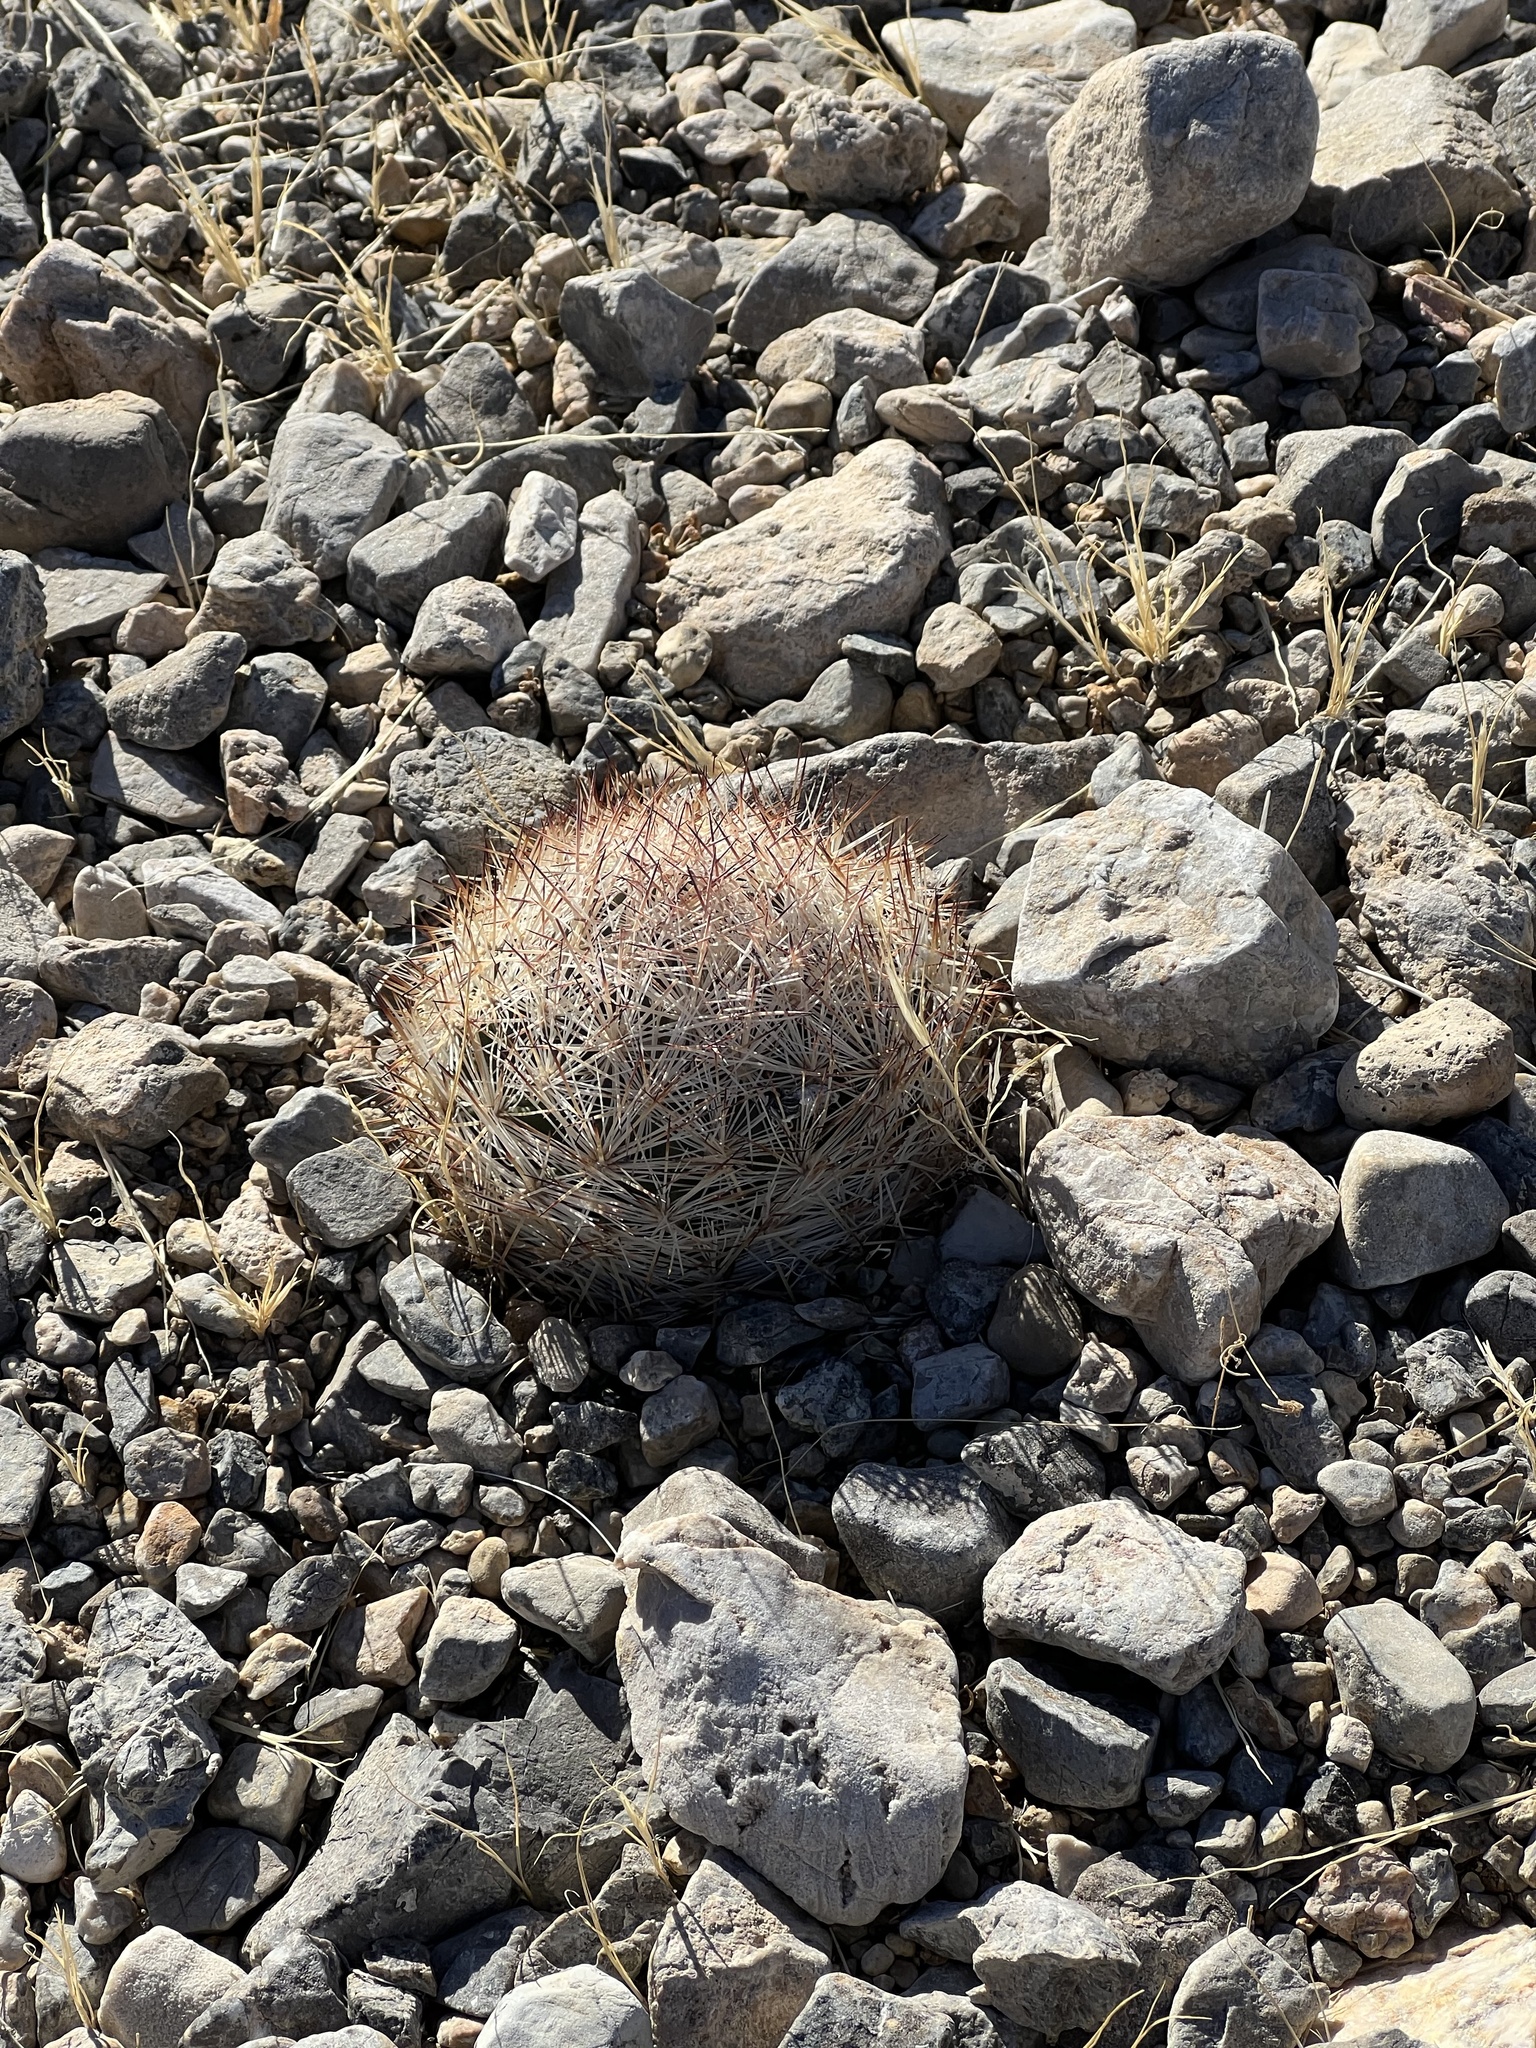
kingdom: Plantae
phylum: Tracheophyta
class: Magnoliopsida
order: Caryophyllales
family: Cactaceae
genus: Pelecyphora
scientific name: Pelecyphora dasyacantha
